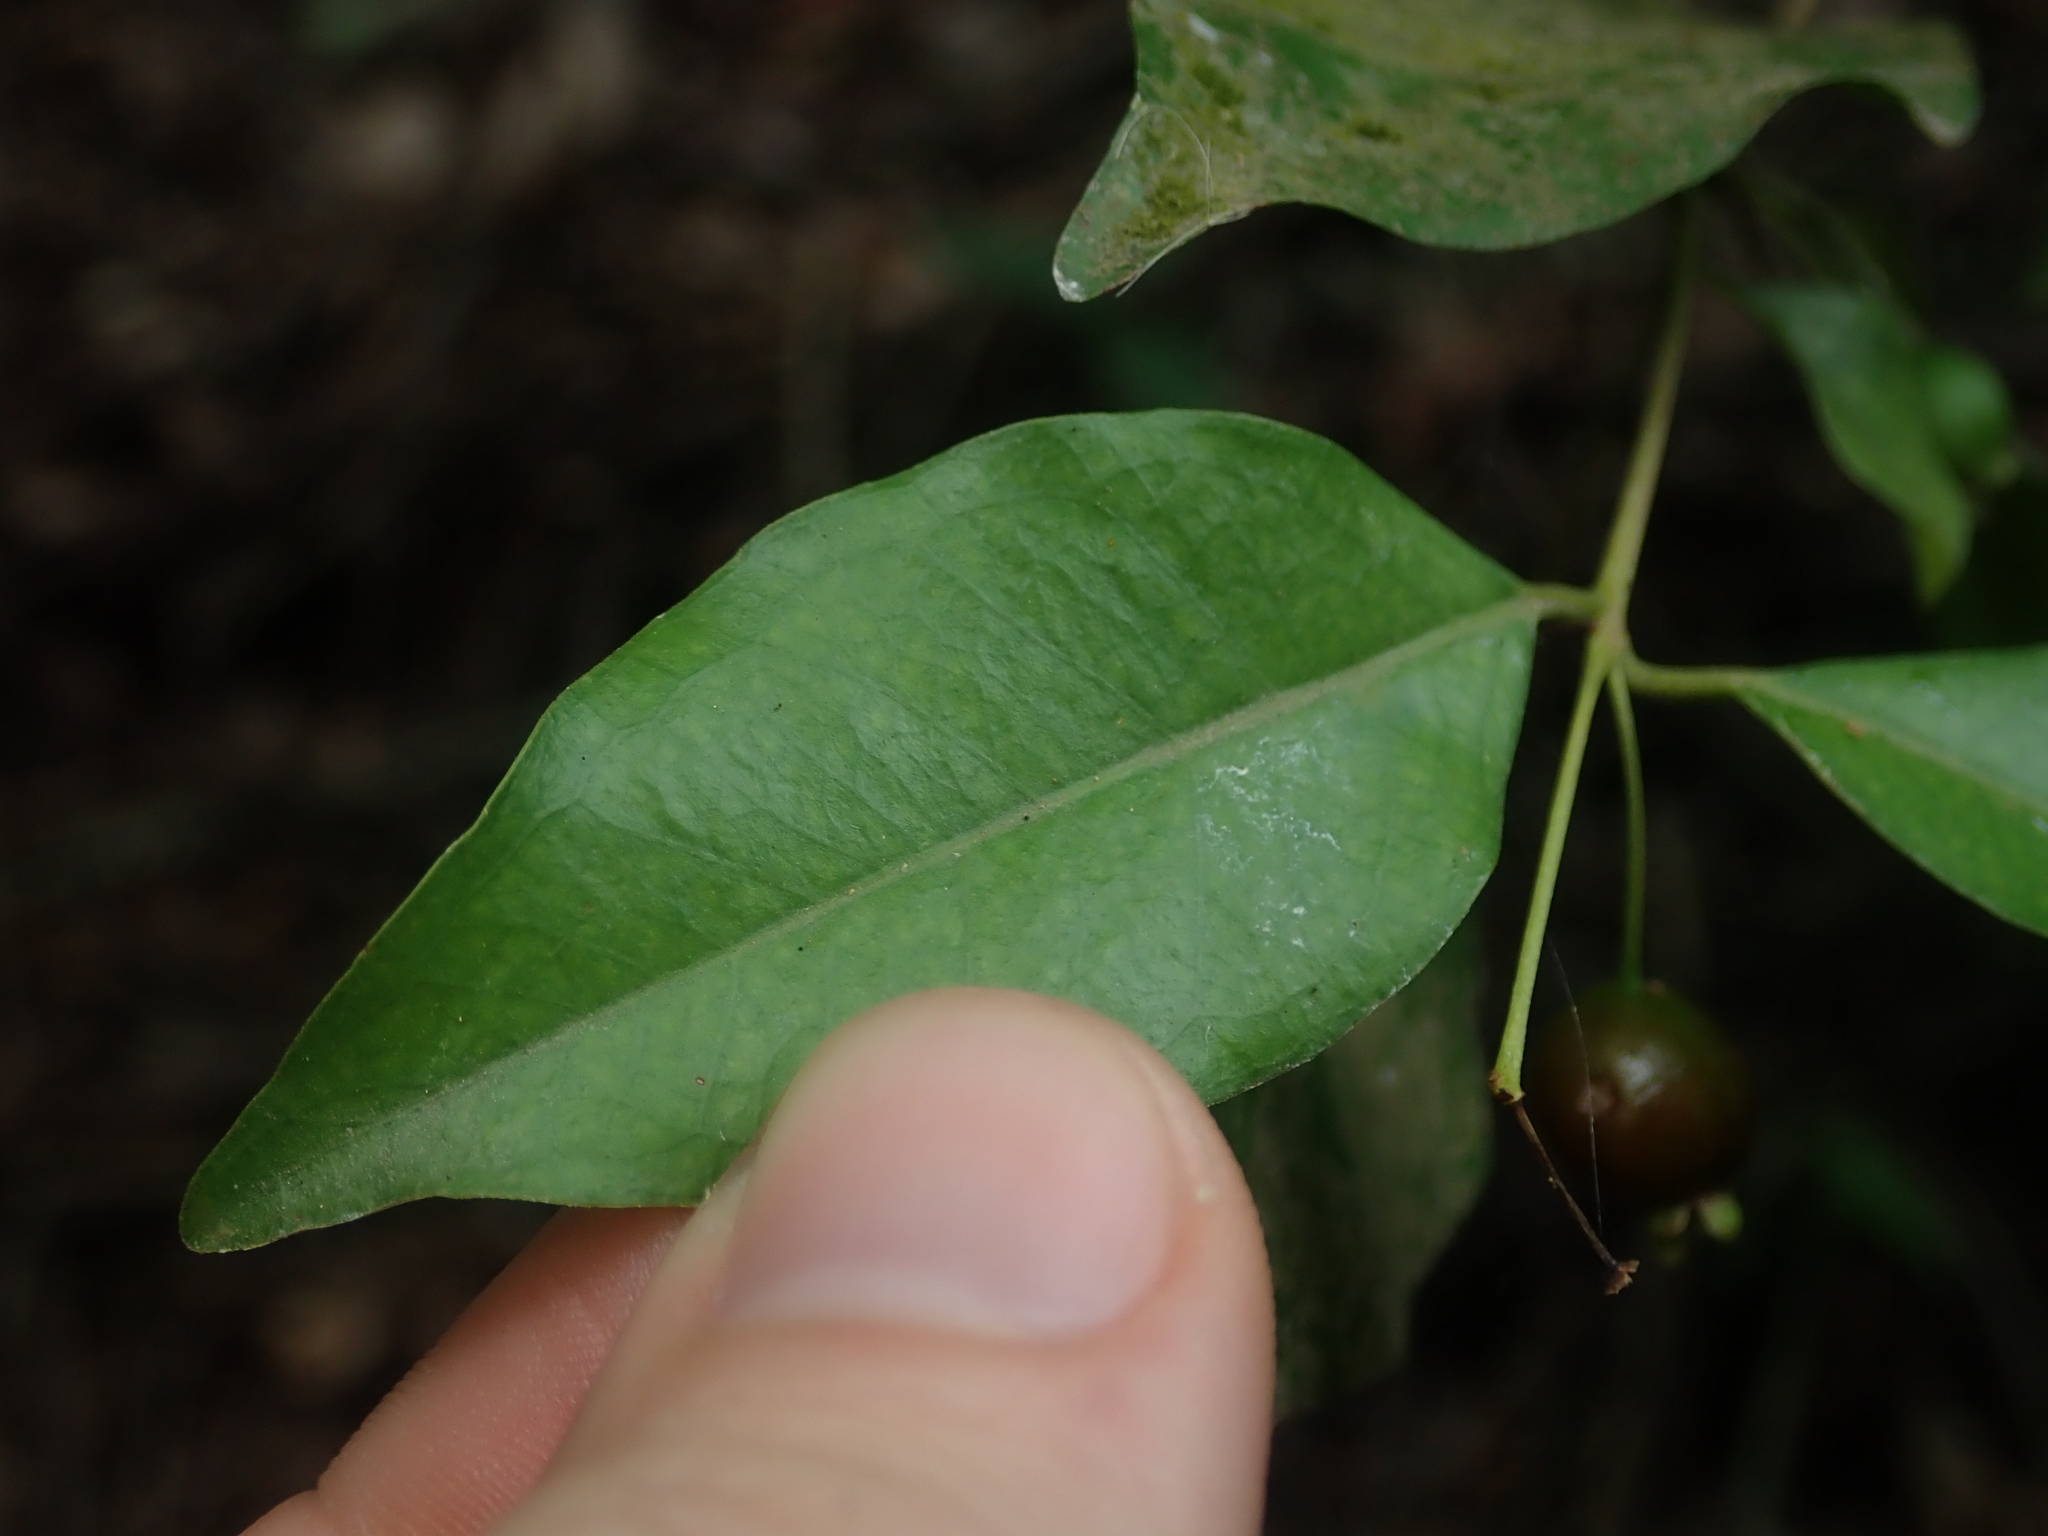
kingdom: Plantae
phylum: Tracheophyta
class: Magnoliopsida
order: Myrtales
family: Myrtaceae
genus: Myrcianthes
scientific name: Myrcianthes pseudomato
